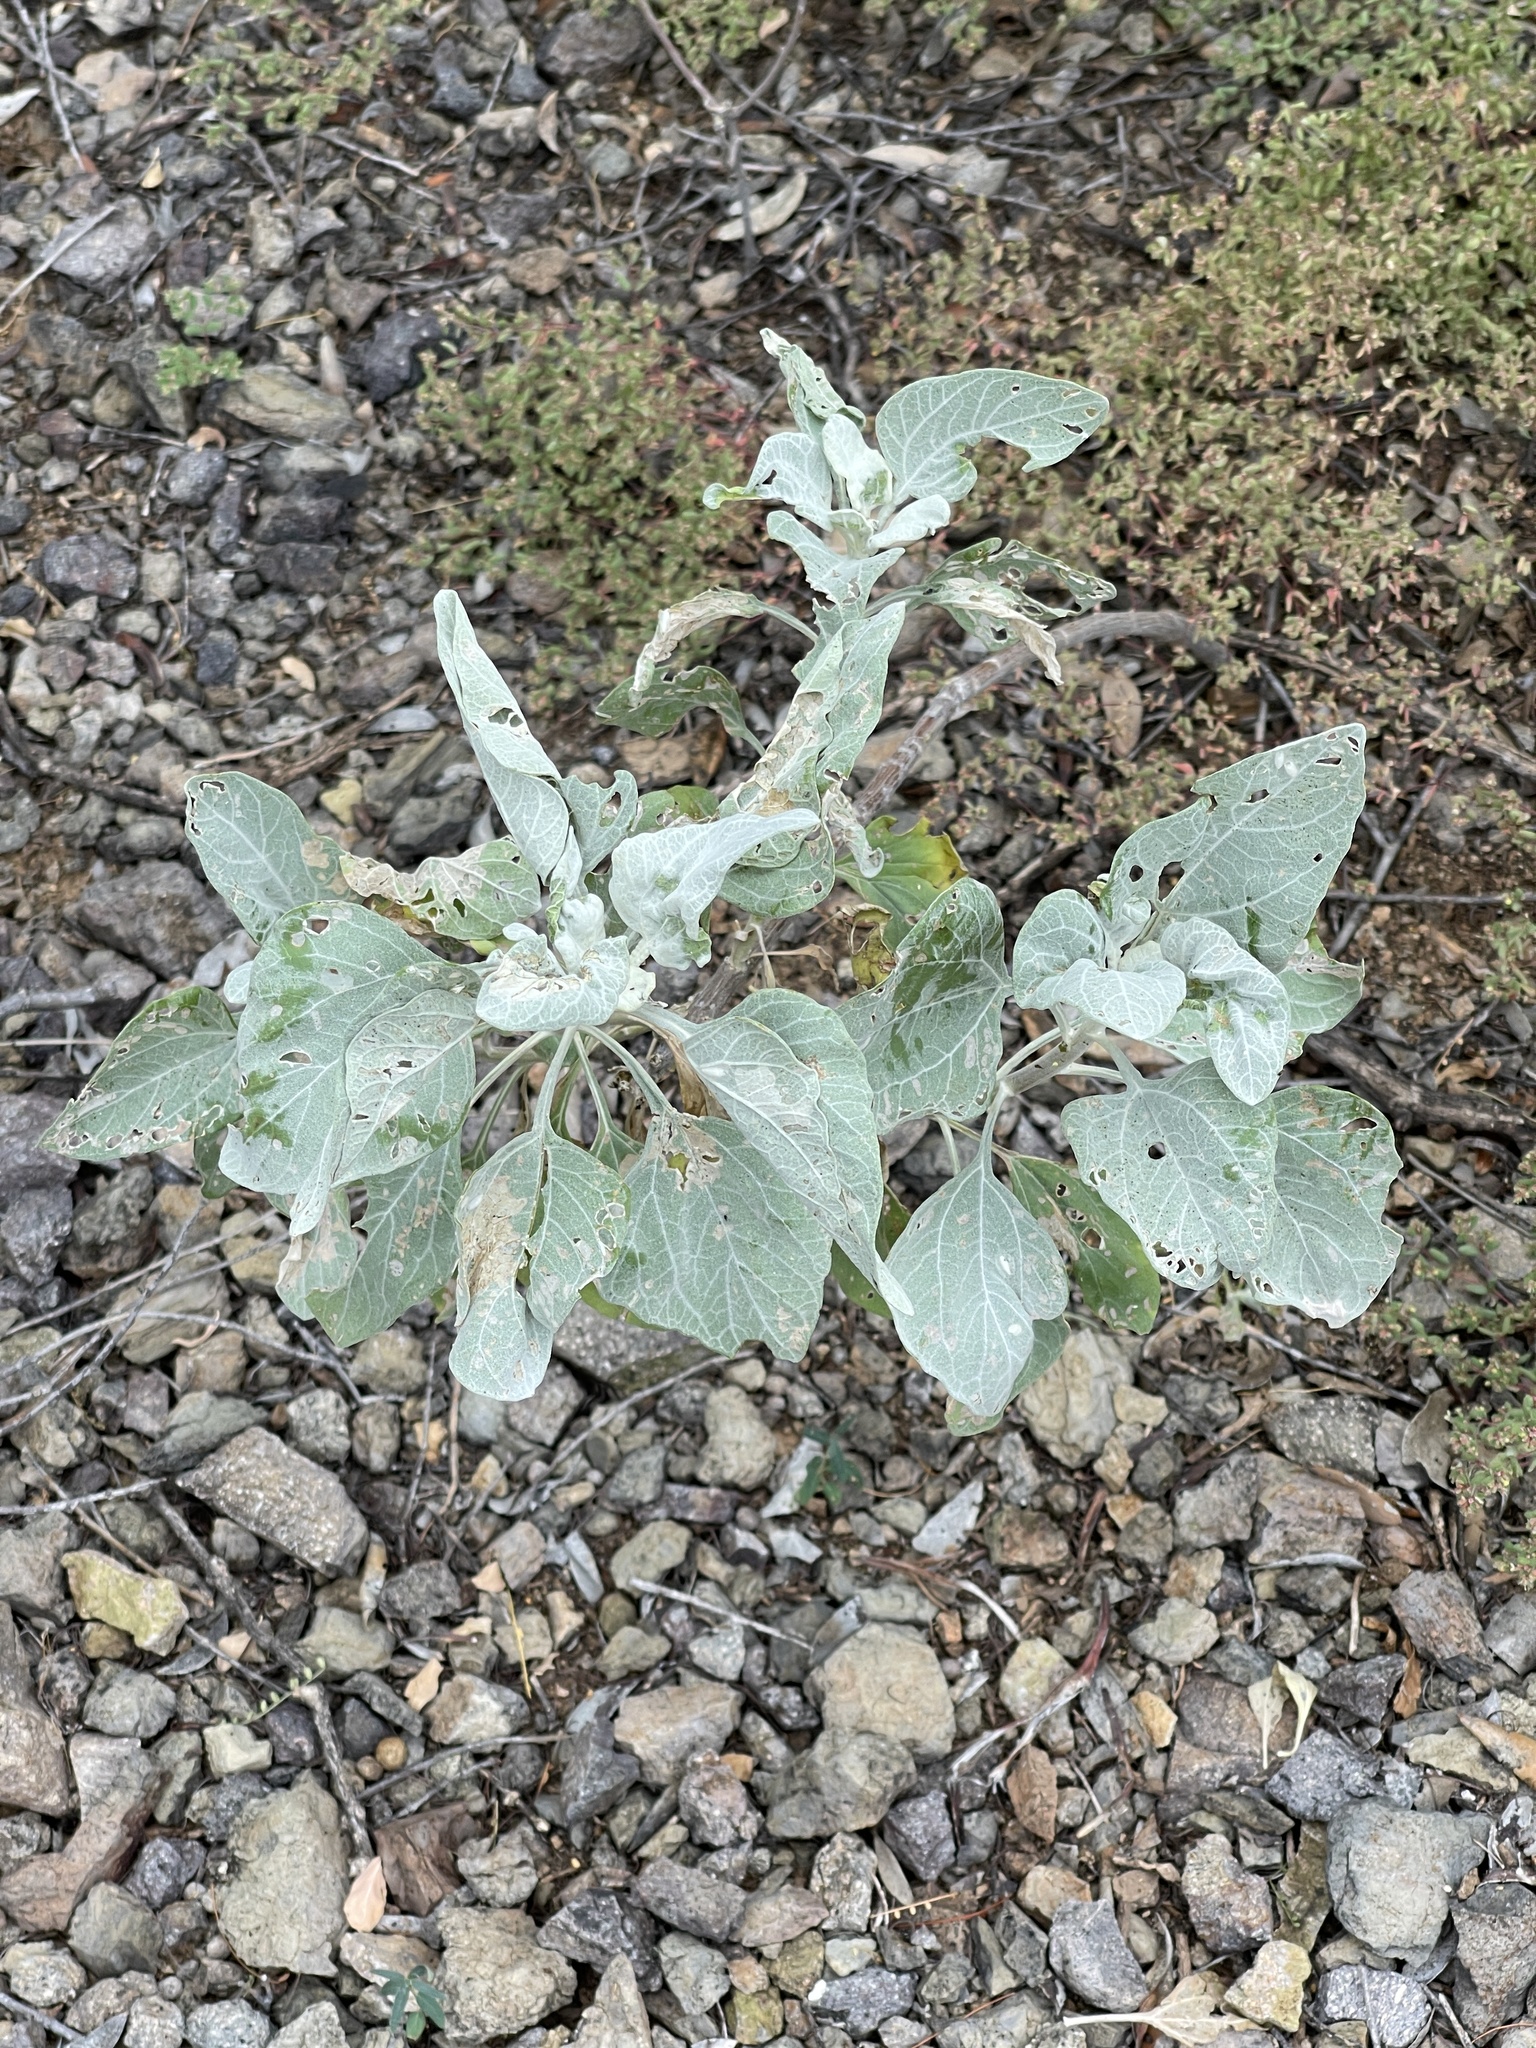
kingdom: Plantae
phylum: Tracheophyta
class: Magnoliopsida
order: Asterales
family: Asteraceae
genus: Encelia
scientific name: Encelia farinosa
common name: Brittlebush
